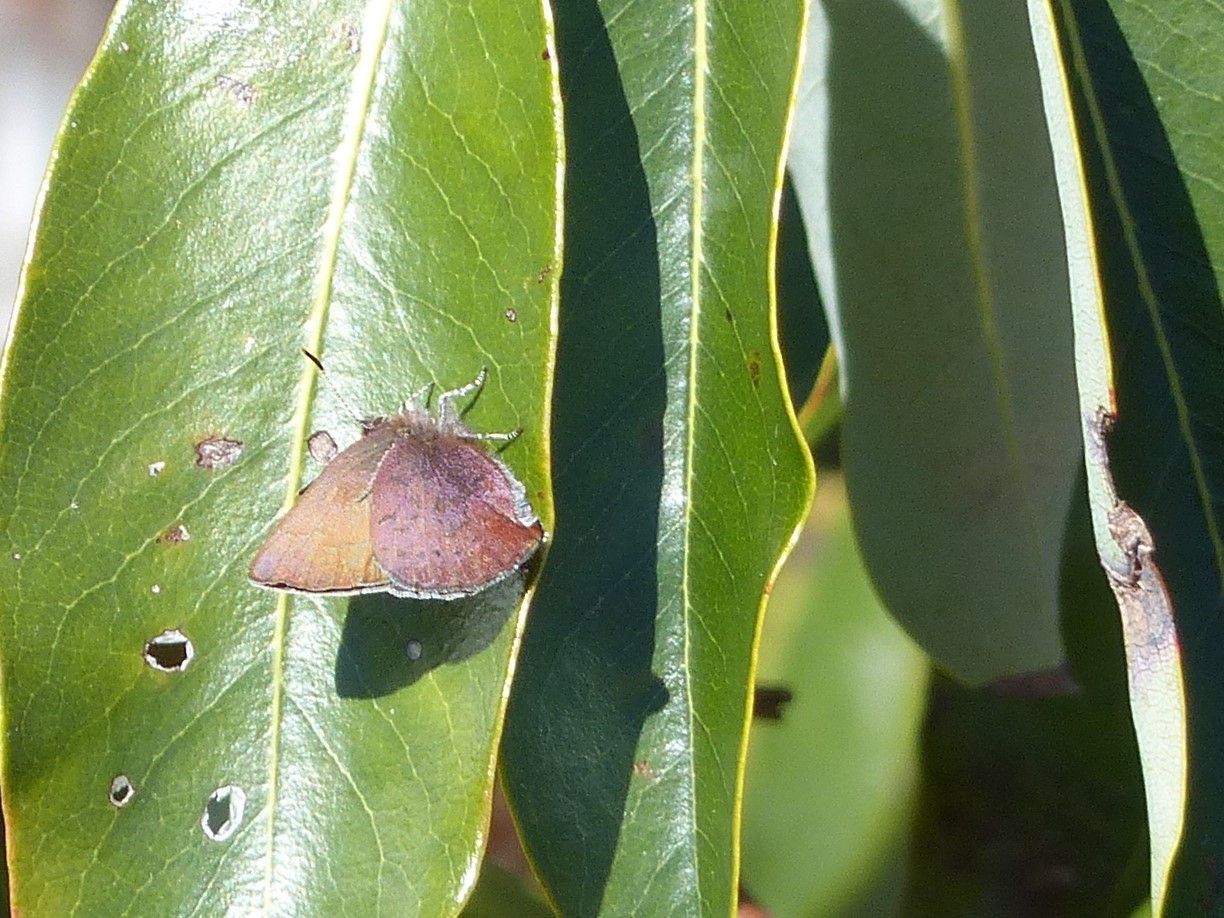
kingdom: Animalia
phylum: Arthropoda
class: Insecta
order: Lepidoptera
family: Lycaenidae
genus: Incisalia
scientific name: Incisalia irioides
